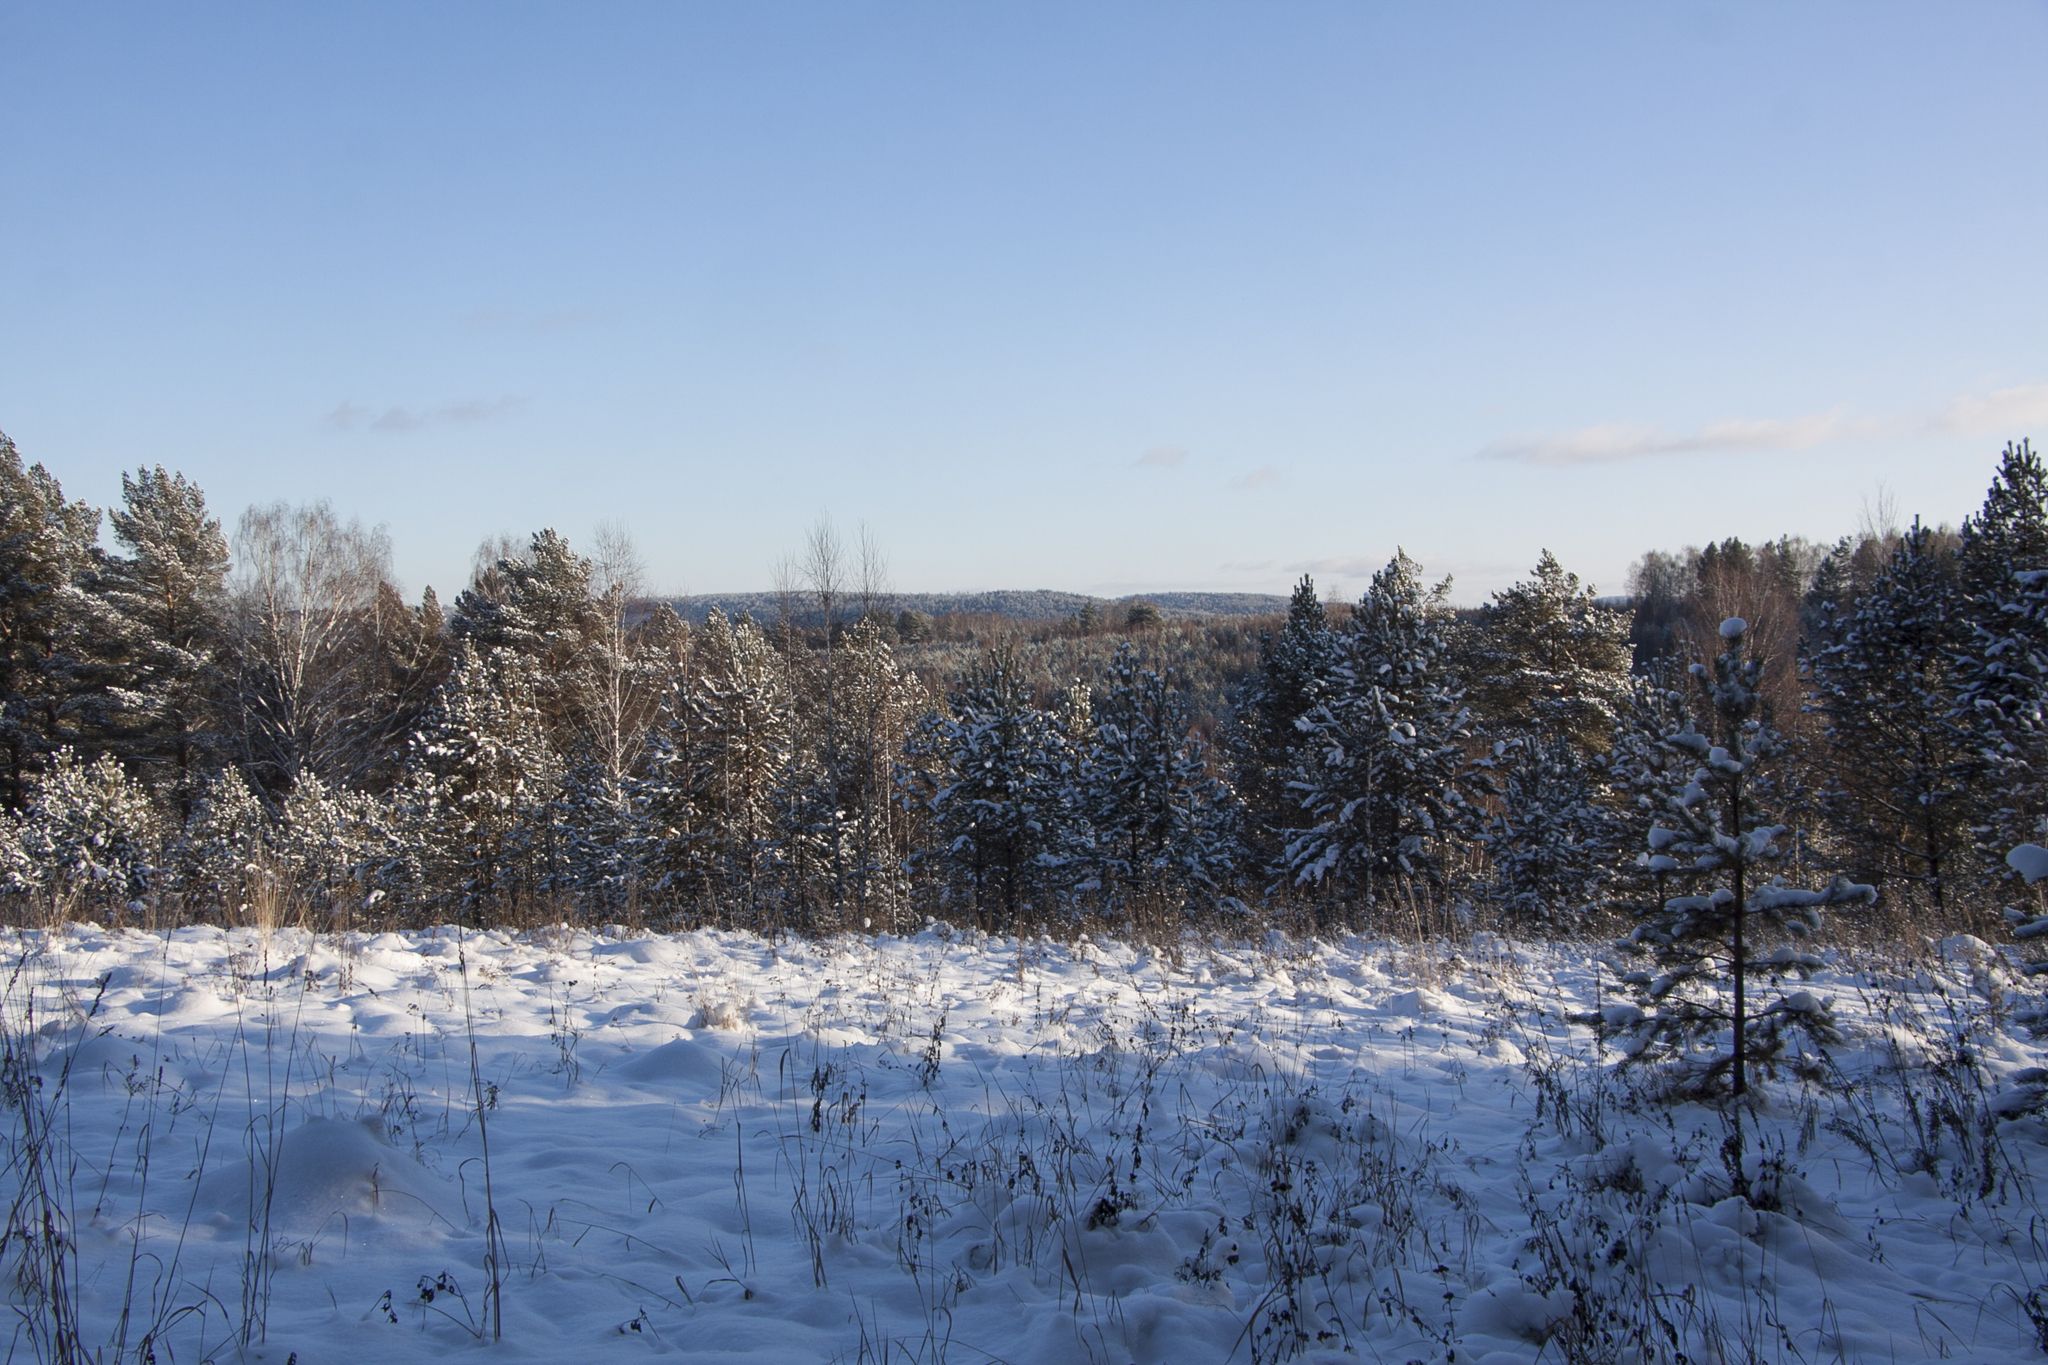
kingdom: Plantae
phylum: Tracheophyta
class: Pinopsida
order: Pinales
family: Pinaceae
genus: Pinus
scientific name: Pinus sylvestris
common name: Scots pine
